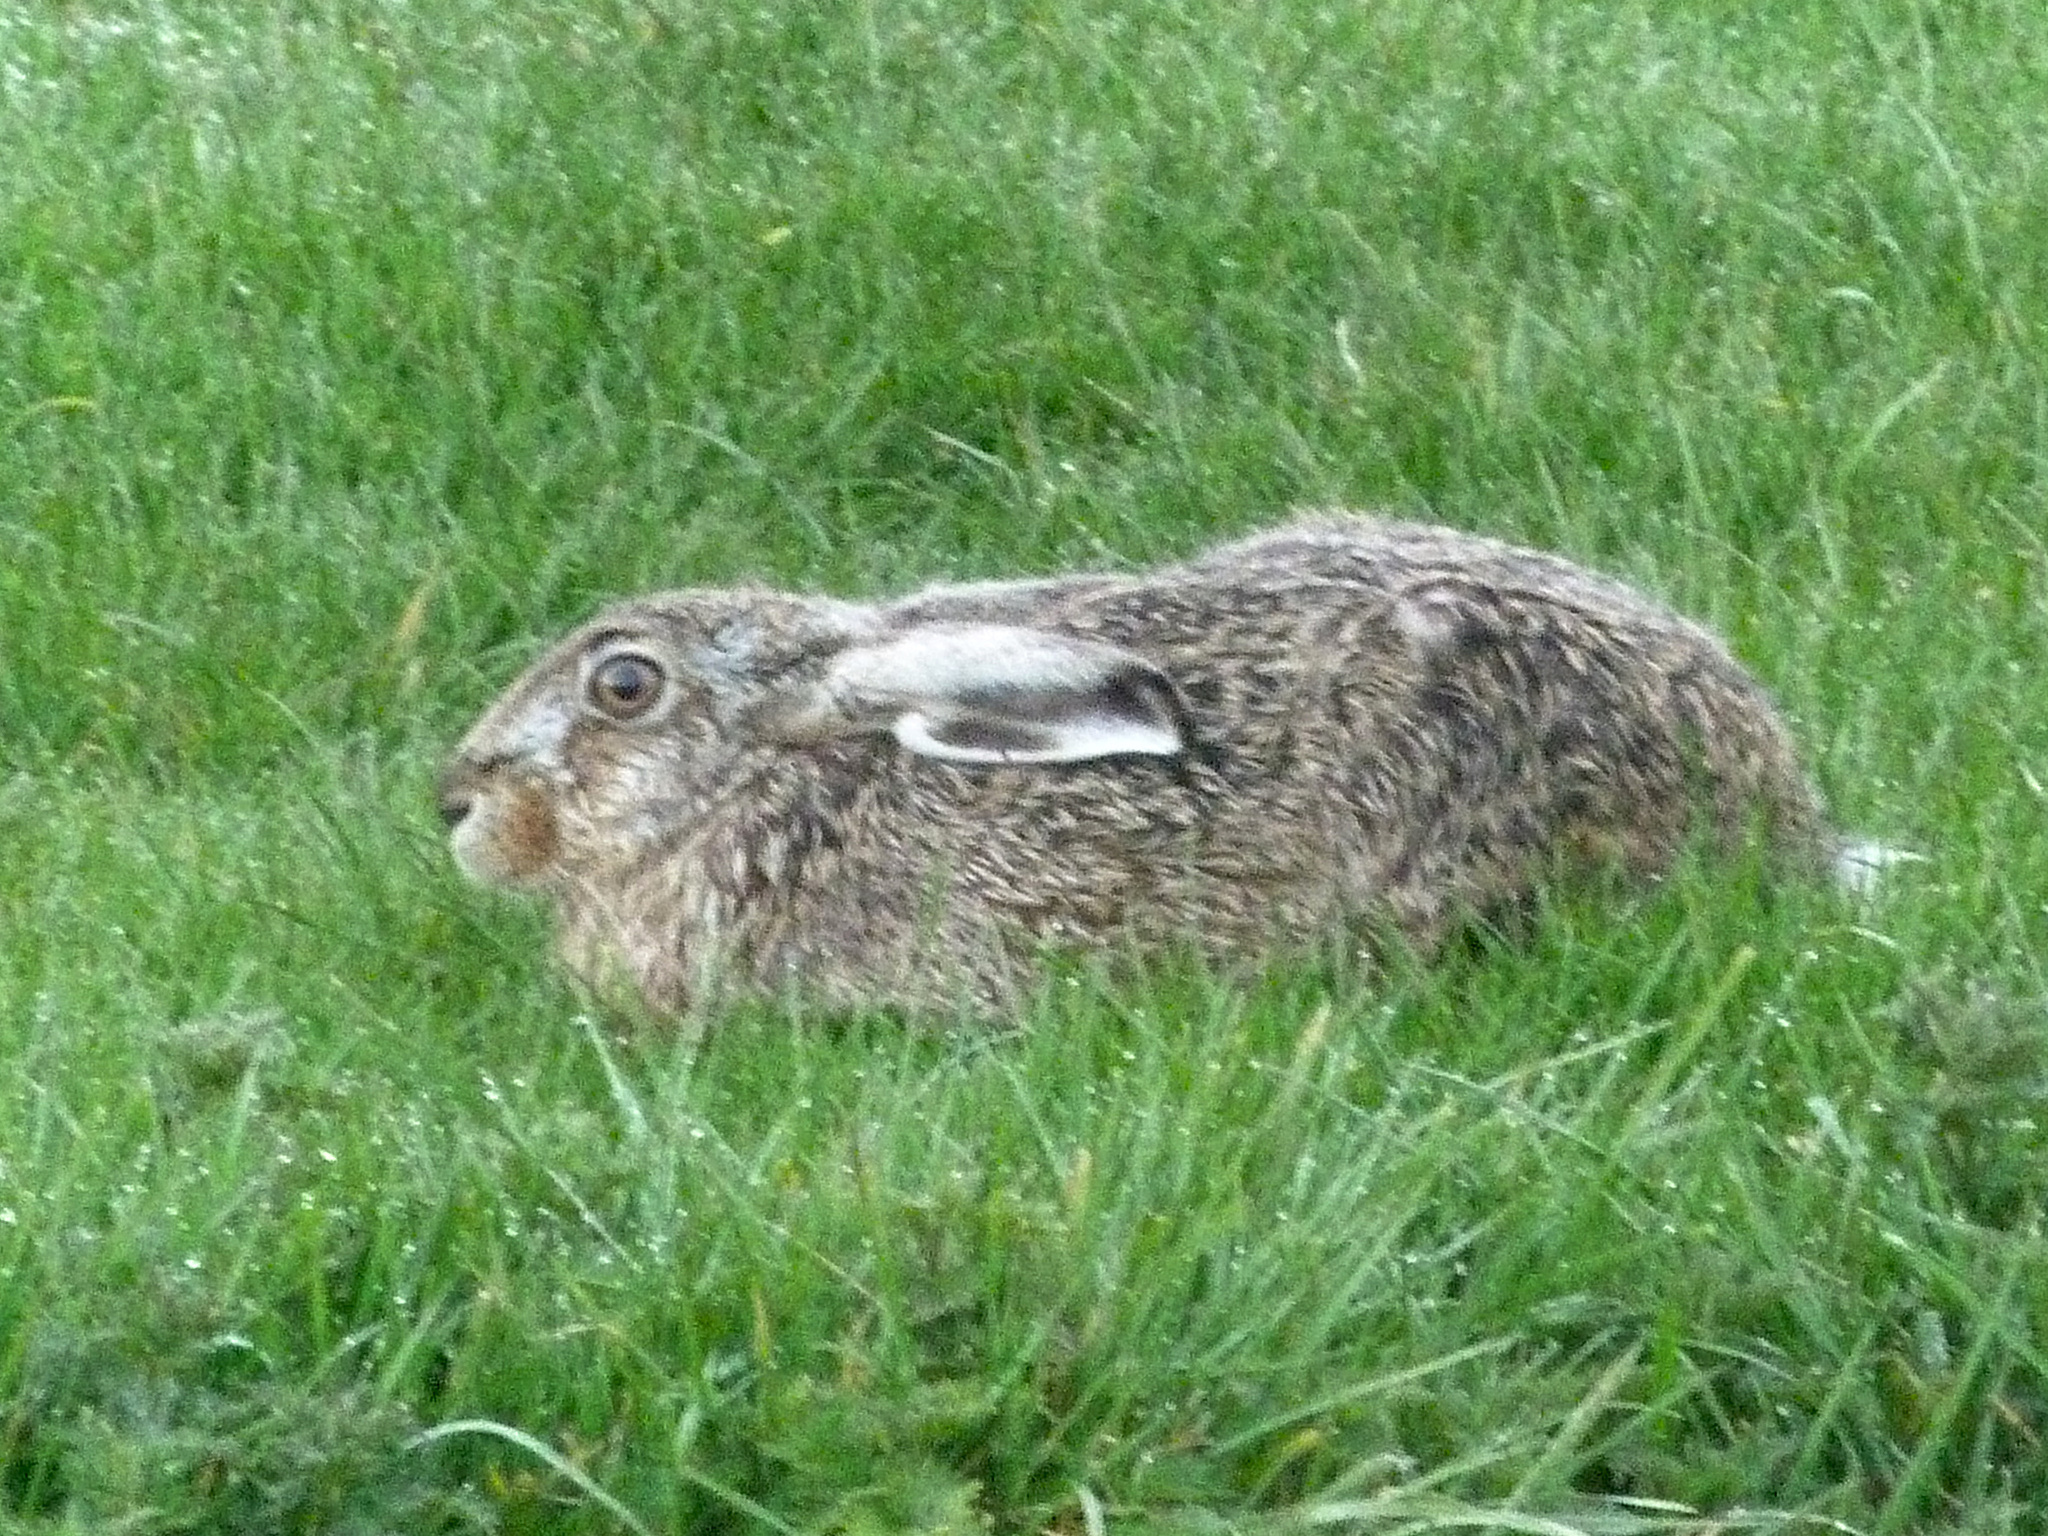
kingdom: Animalia
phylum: Chordata
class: Mammalia
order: Lagomorpha
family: Leporidae
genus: Lepus
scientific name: Lepus europaeus
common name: European hare
